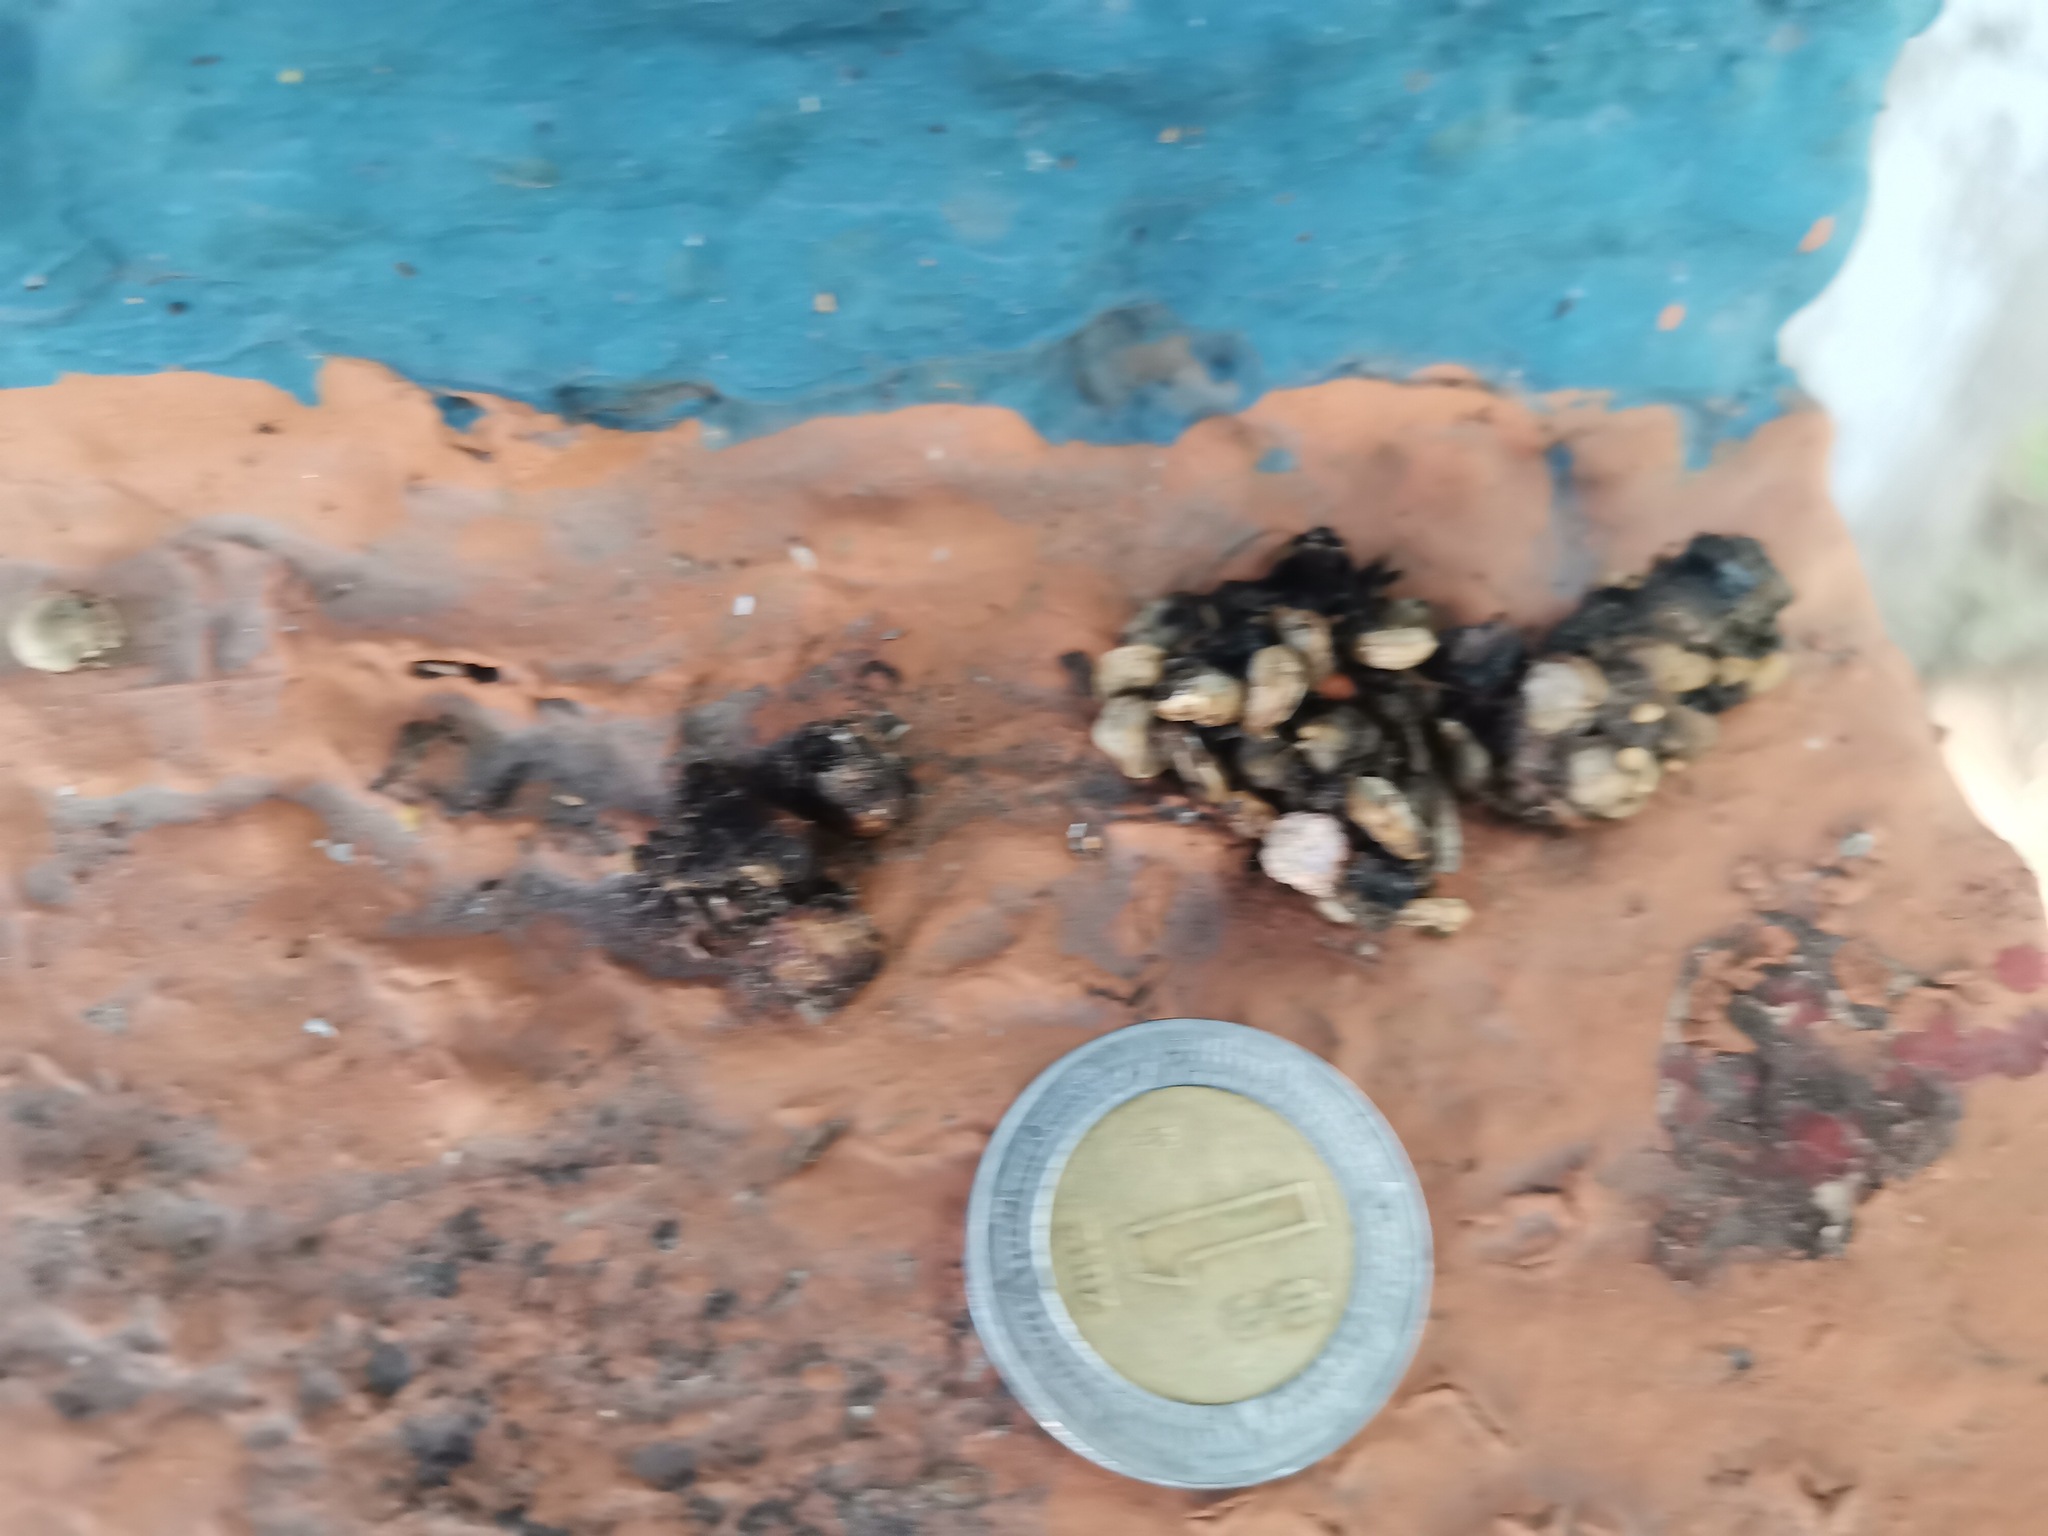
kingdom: Animalia
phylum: Chordata
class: Mammalia
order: Carnivora
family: Procyonidae
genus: Bassariscus
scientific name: Bassariscus astutus
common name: Ringtail
